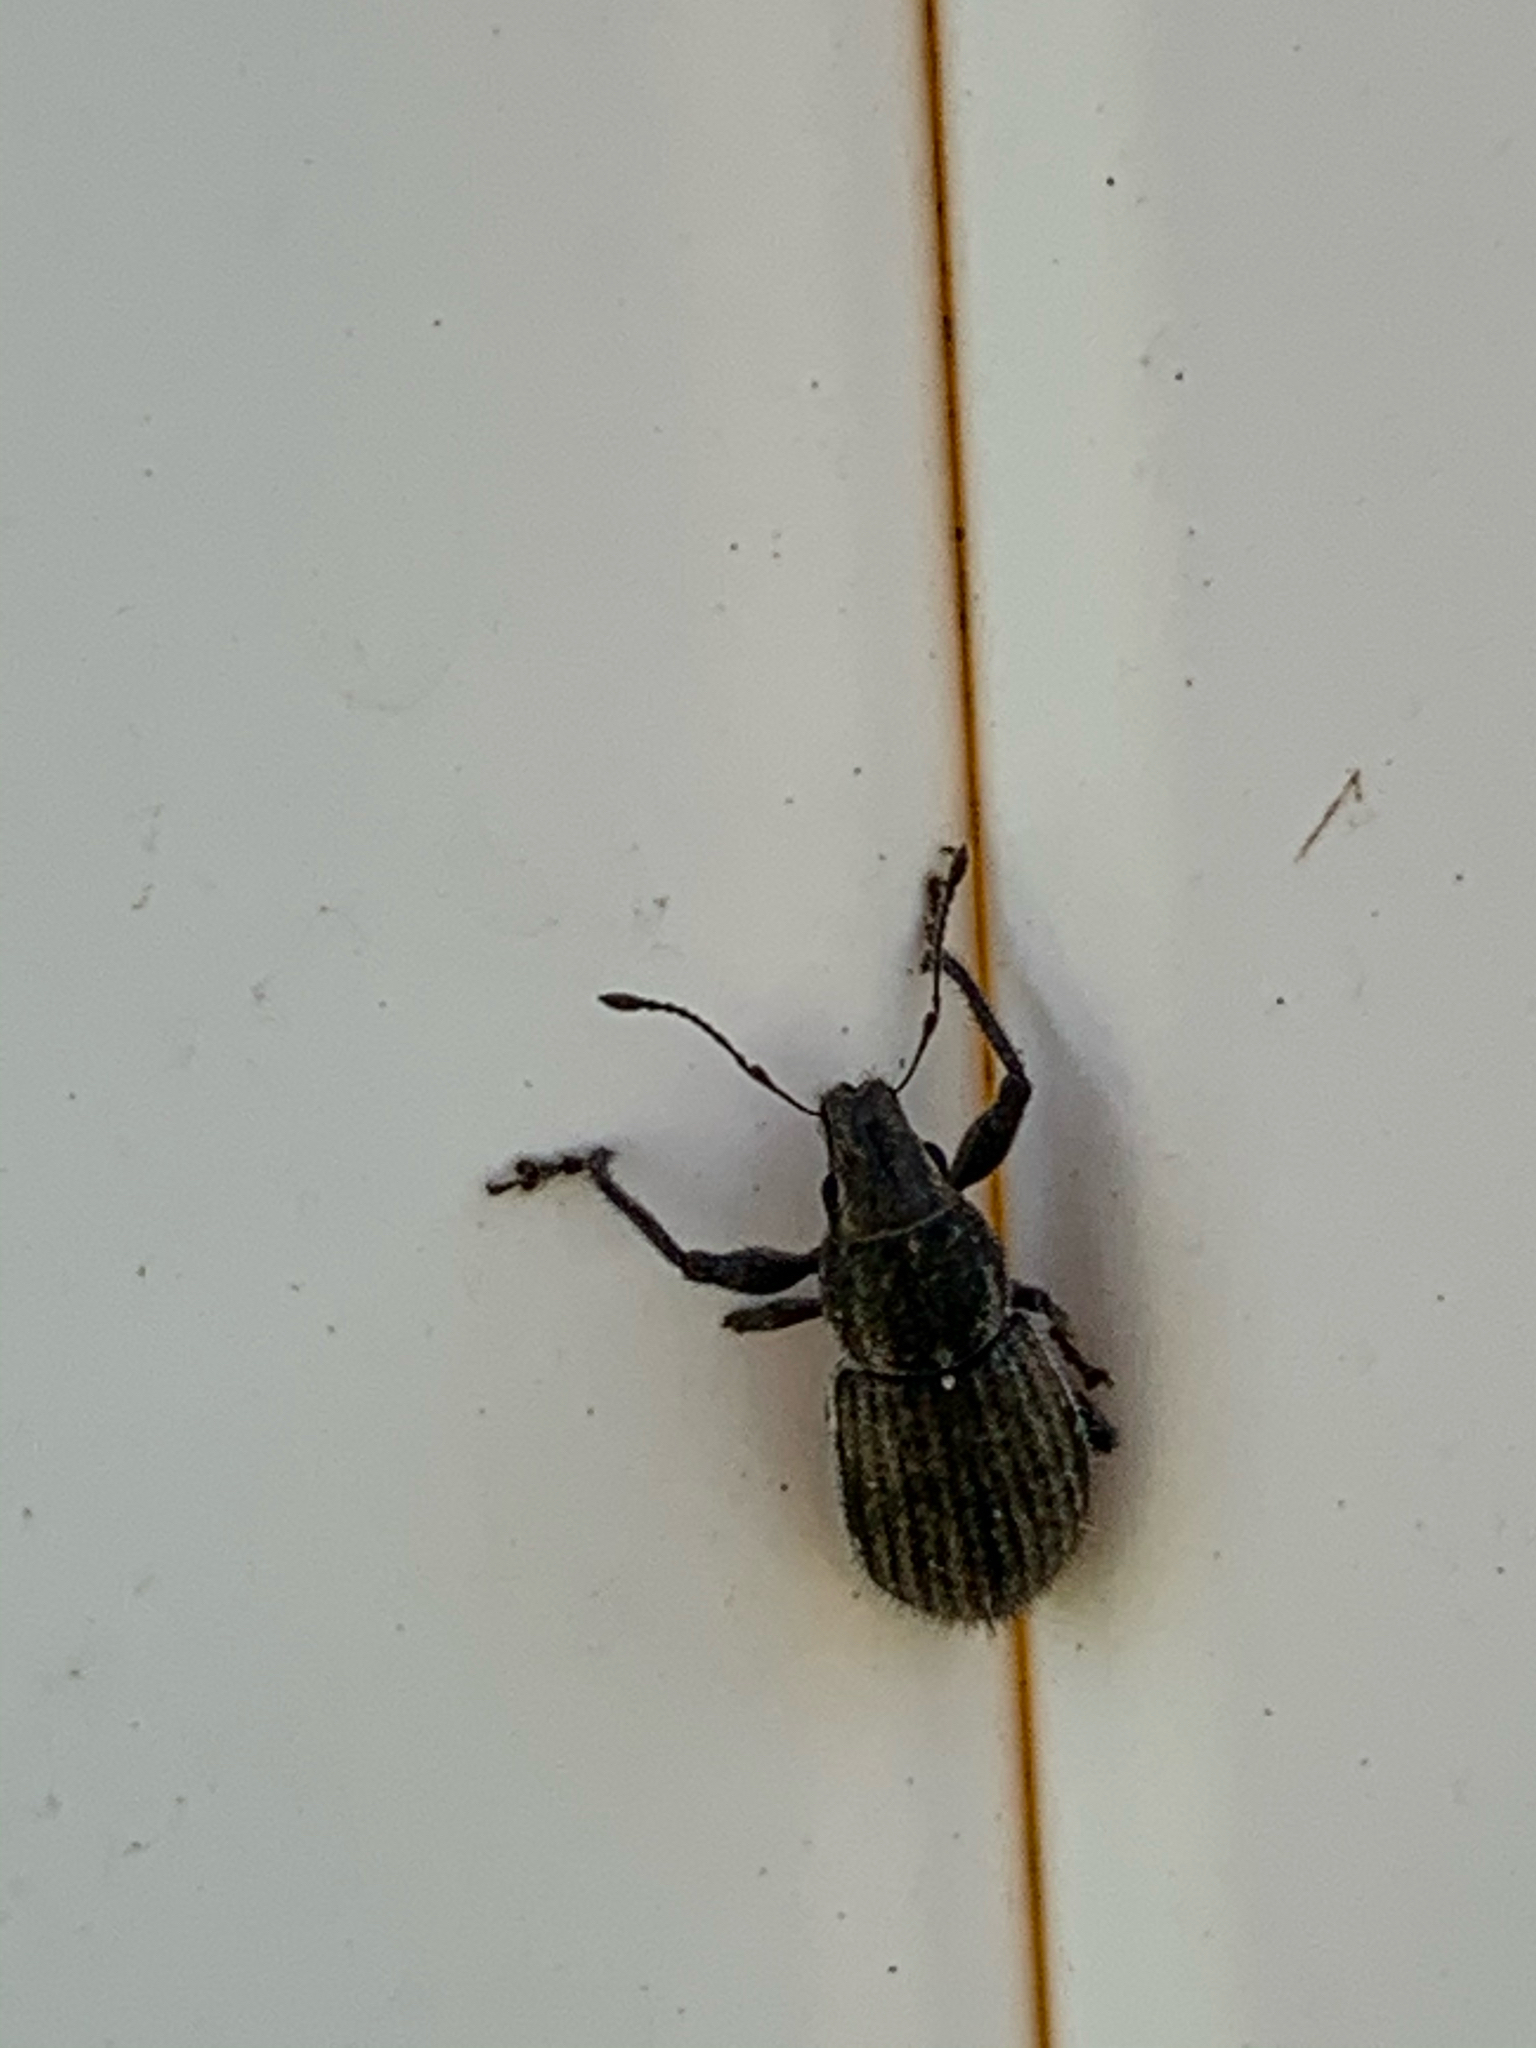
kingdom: Animalia
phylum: Arthropoda
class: Insecta
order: Coleoptera
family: Curculionidae
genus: Naupactus
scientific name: Naupactus leucoloma
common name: Whitefringed beetle
